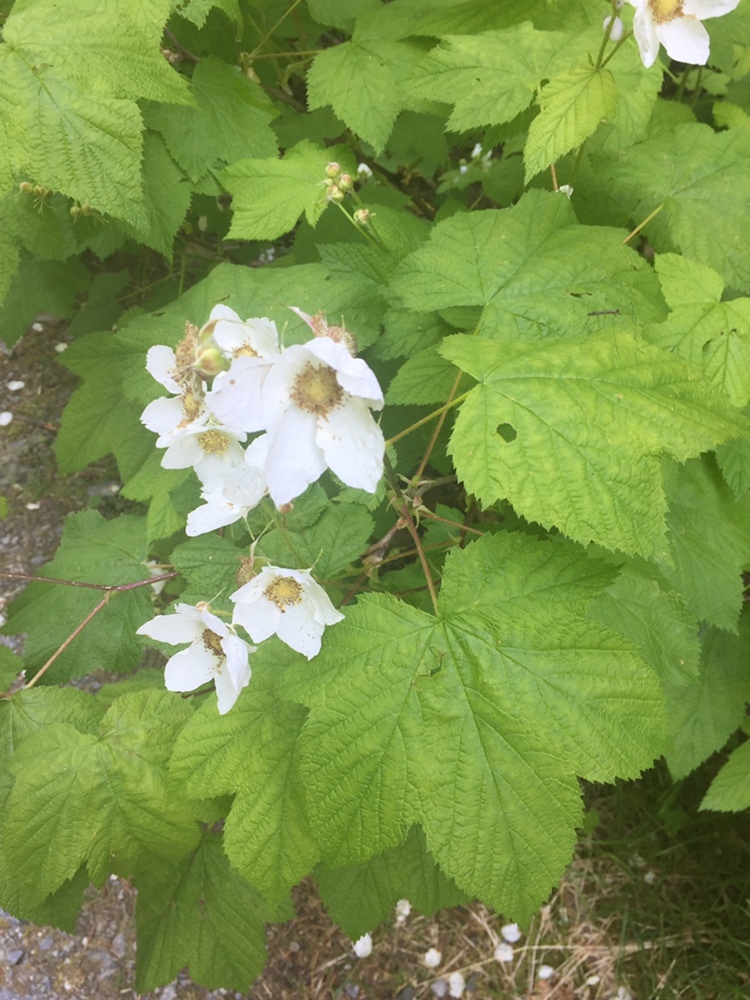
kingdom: Plantae
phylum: Tracheophyta
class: Magnoliopsida
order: Rosales
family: Rosaceae
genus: Rubus
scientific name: Rubus parviflorus
